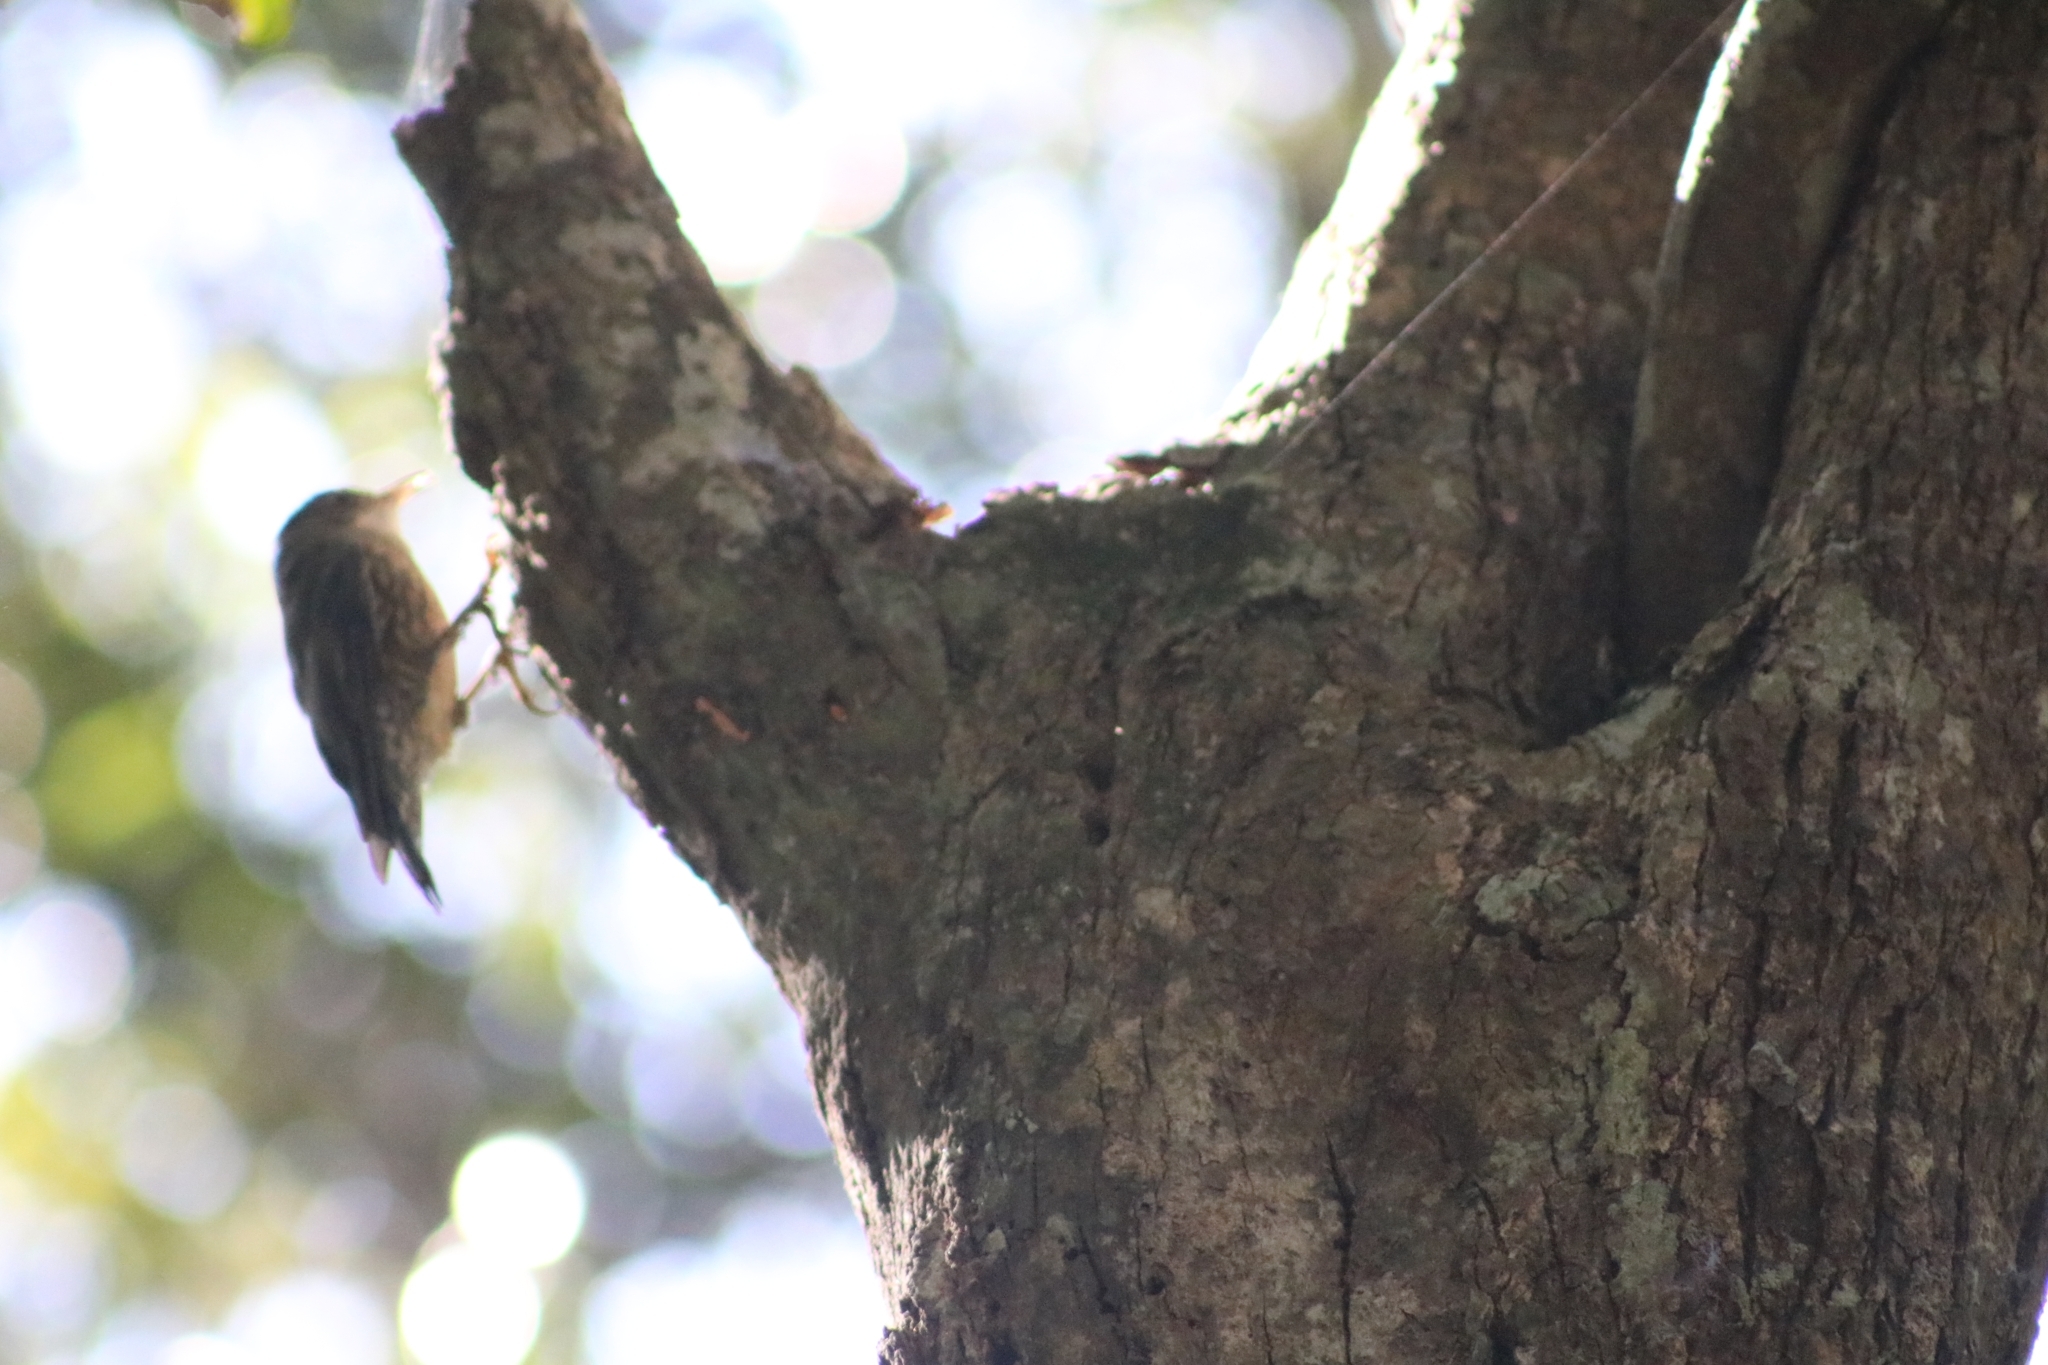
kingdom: Animalia
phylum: Chordata
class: Aves
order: Passeriformes
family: Climacteridae
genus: Cormobates
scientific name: Cormobates leucophaea
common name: White-throated treecreeper
